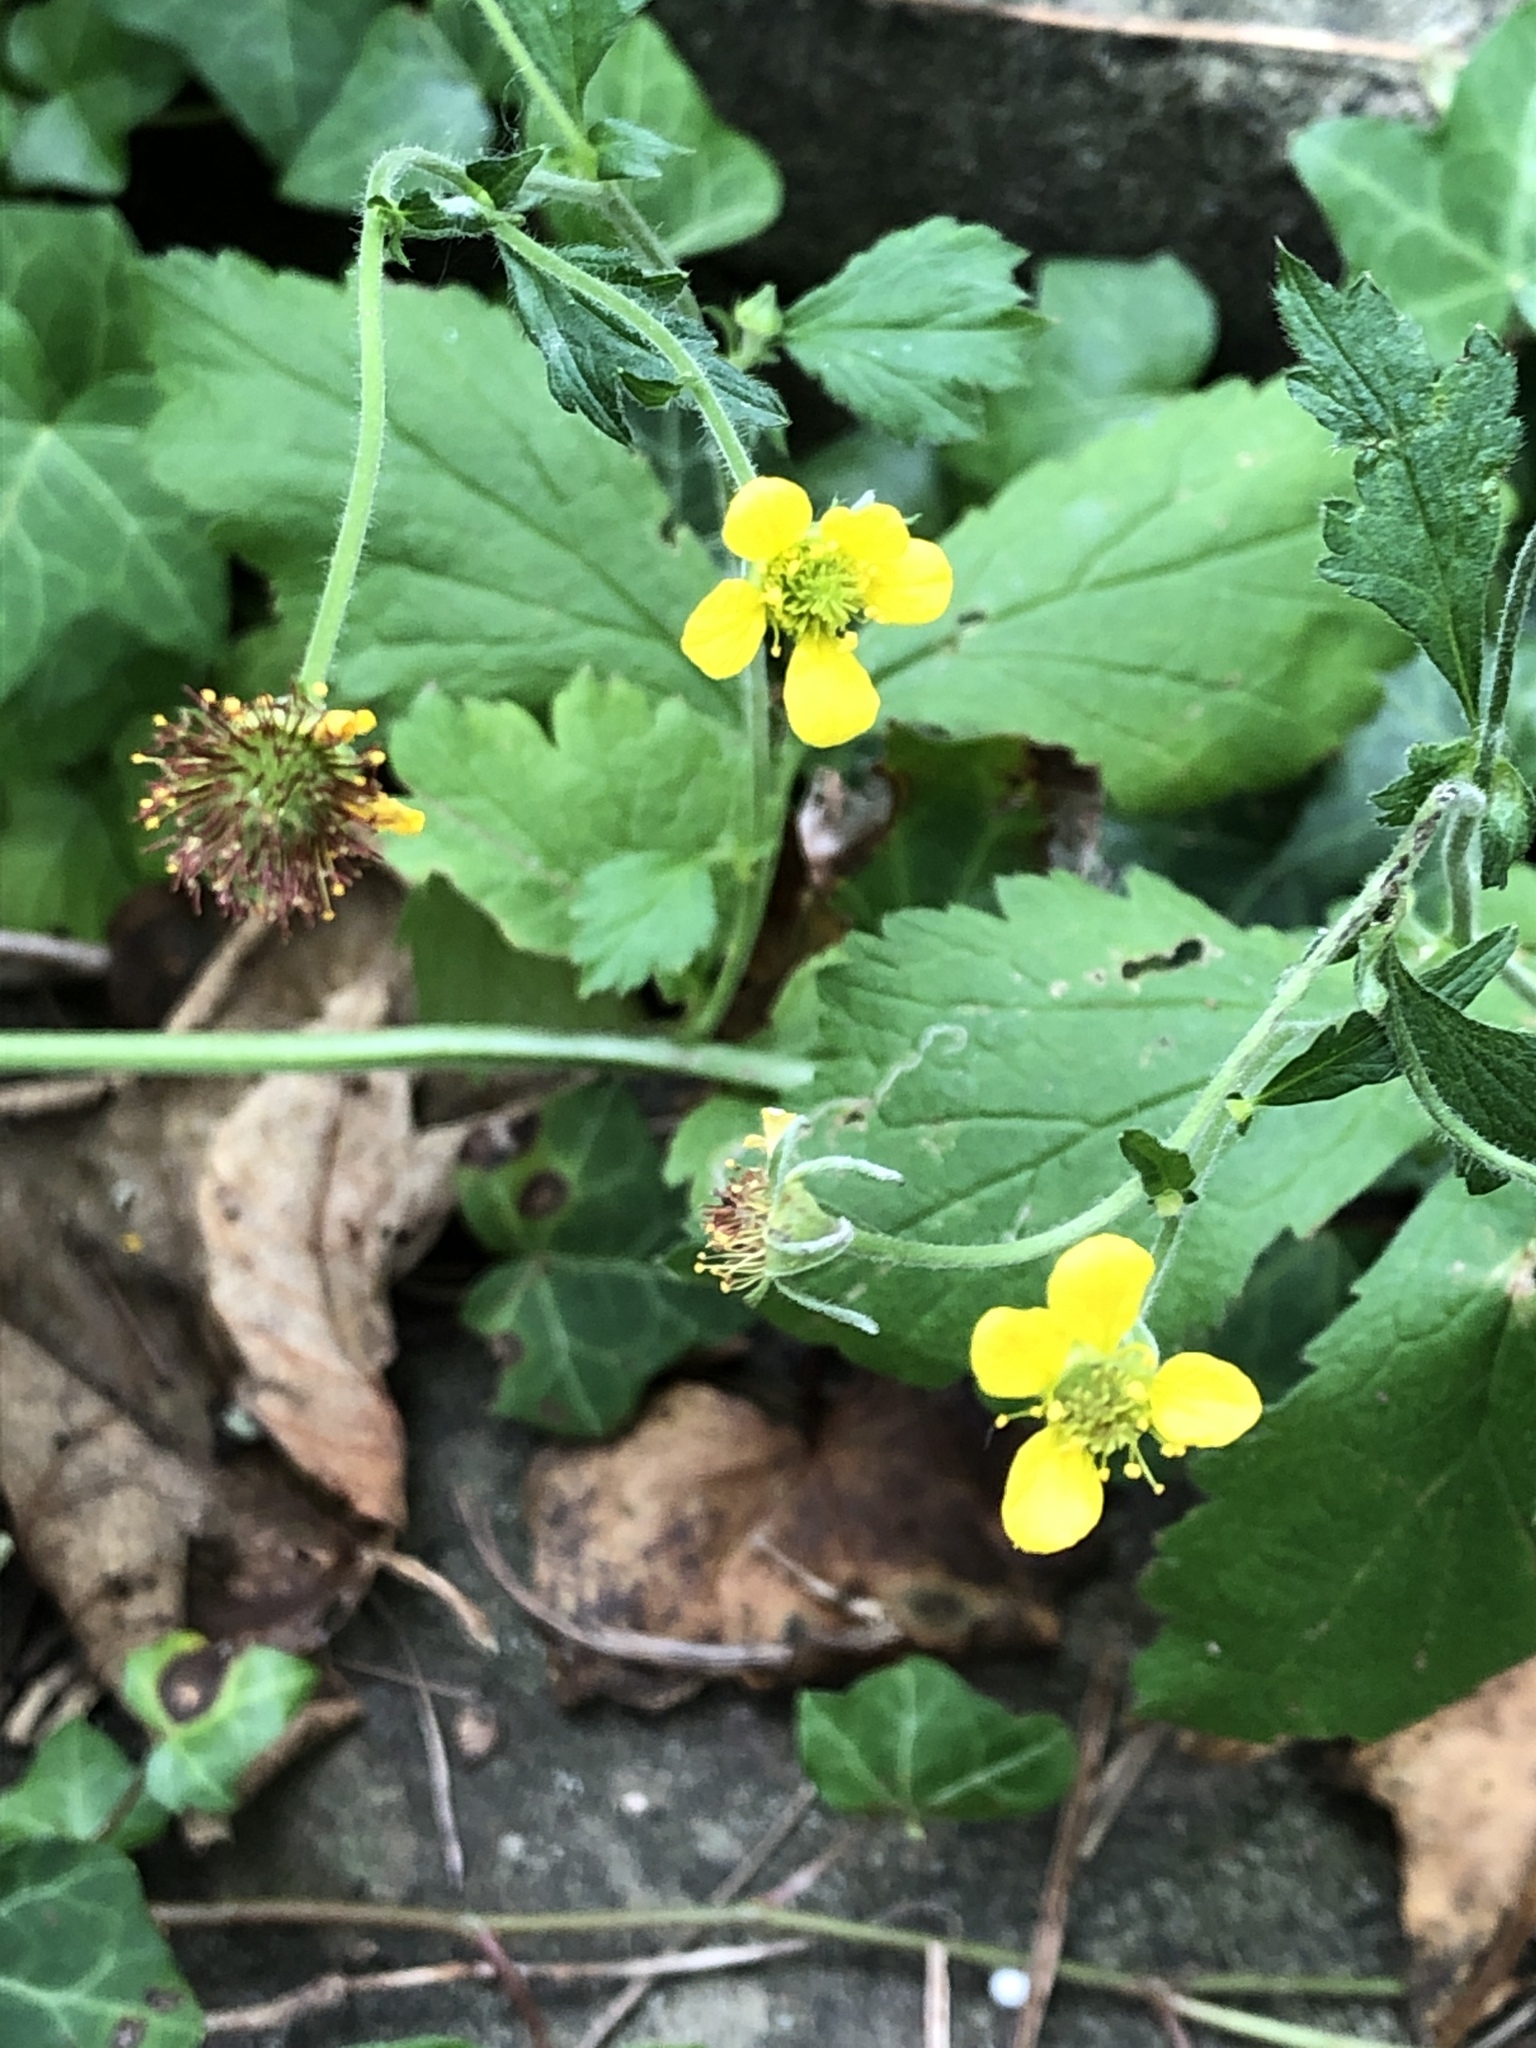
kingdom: Plantae
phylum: Tracheophyta
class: Magnoliopsida
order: Rosales
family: Rosaceae
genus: Geum
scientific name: Geum urbanum
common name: Wood avens
